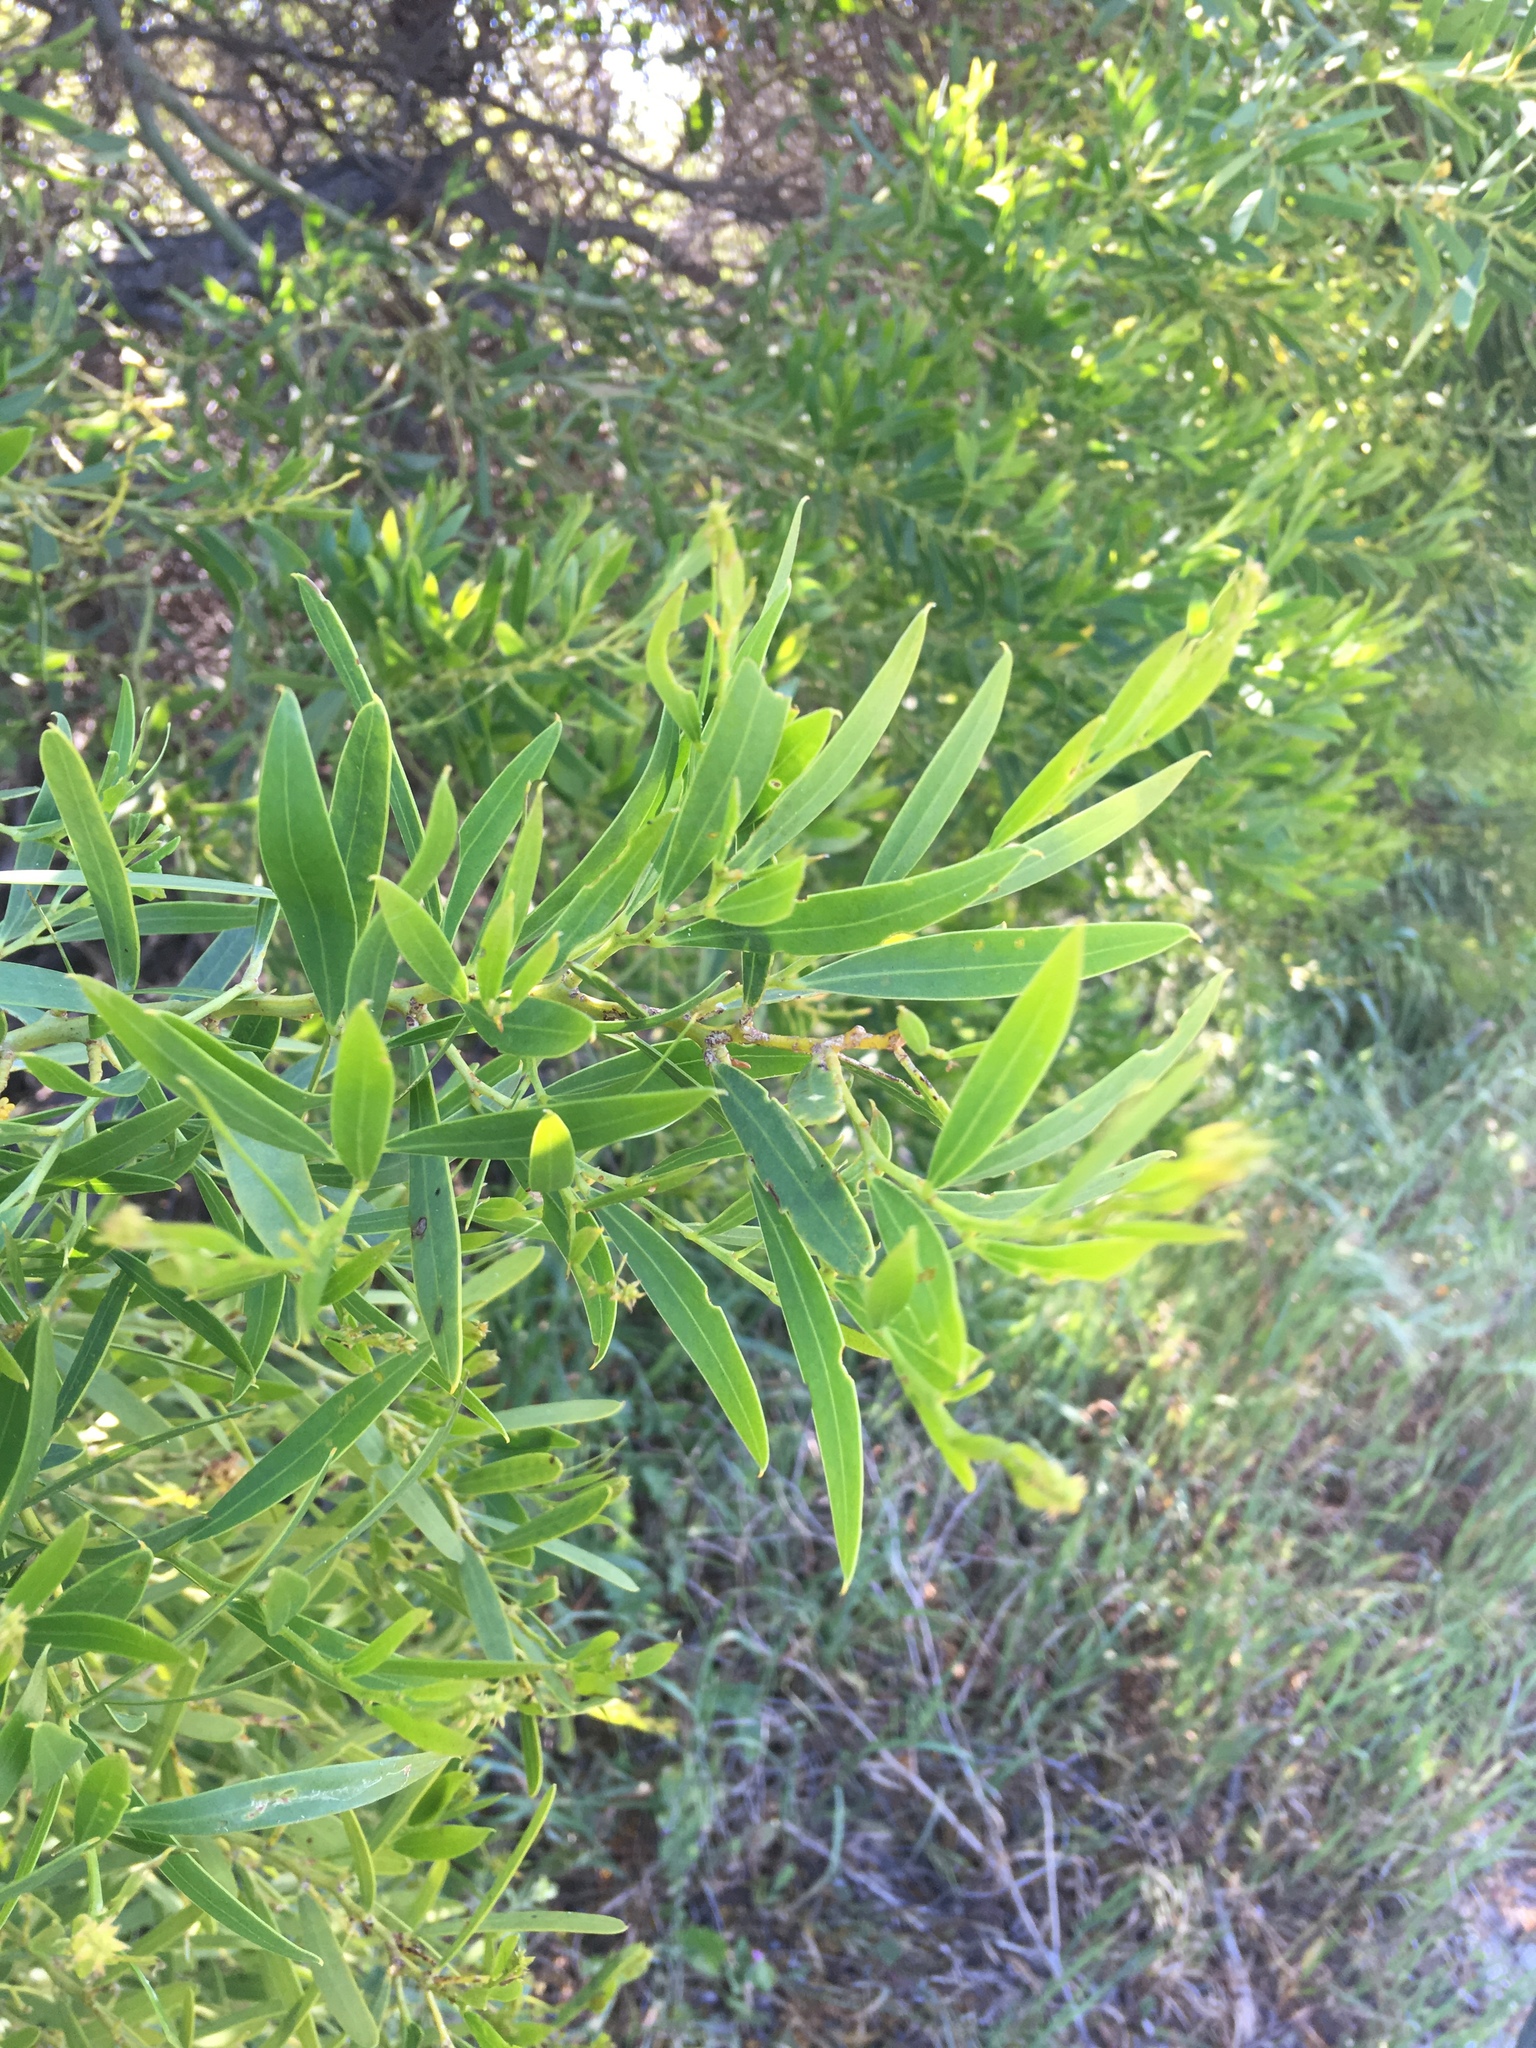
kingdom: Plantae
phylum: Tracheophyta
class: Magnoliopsida
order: Fabales
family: Fabaceae
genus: Acacia
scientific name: Acacia rostellifera
